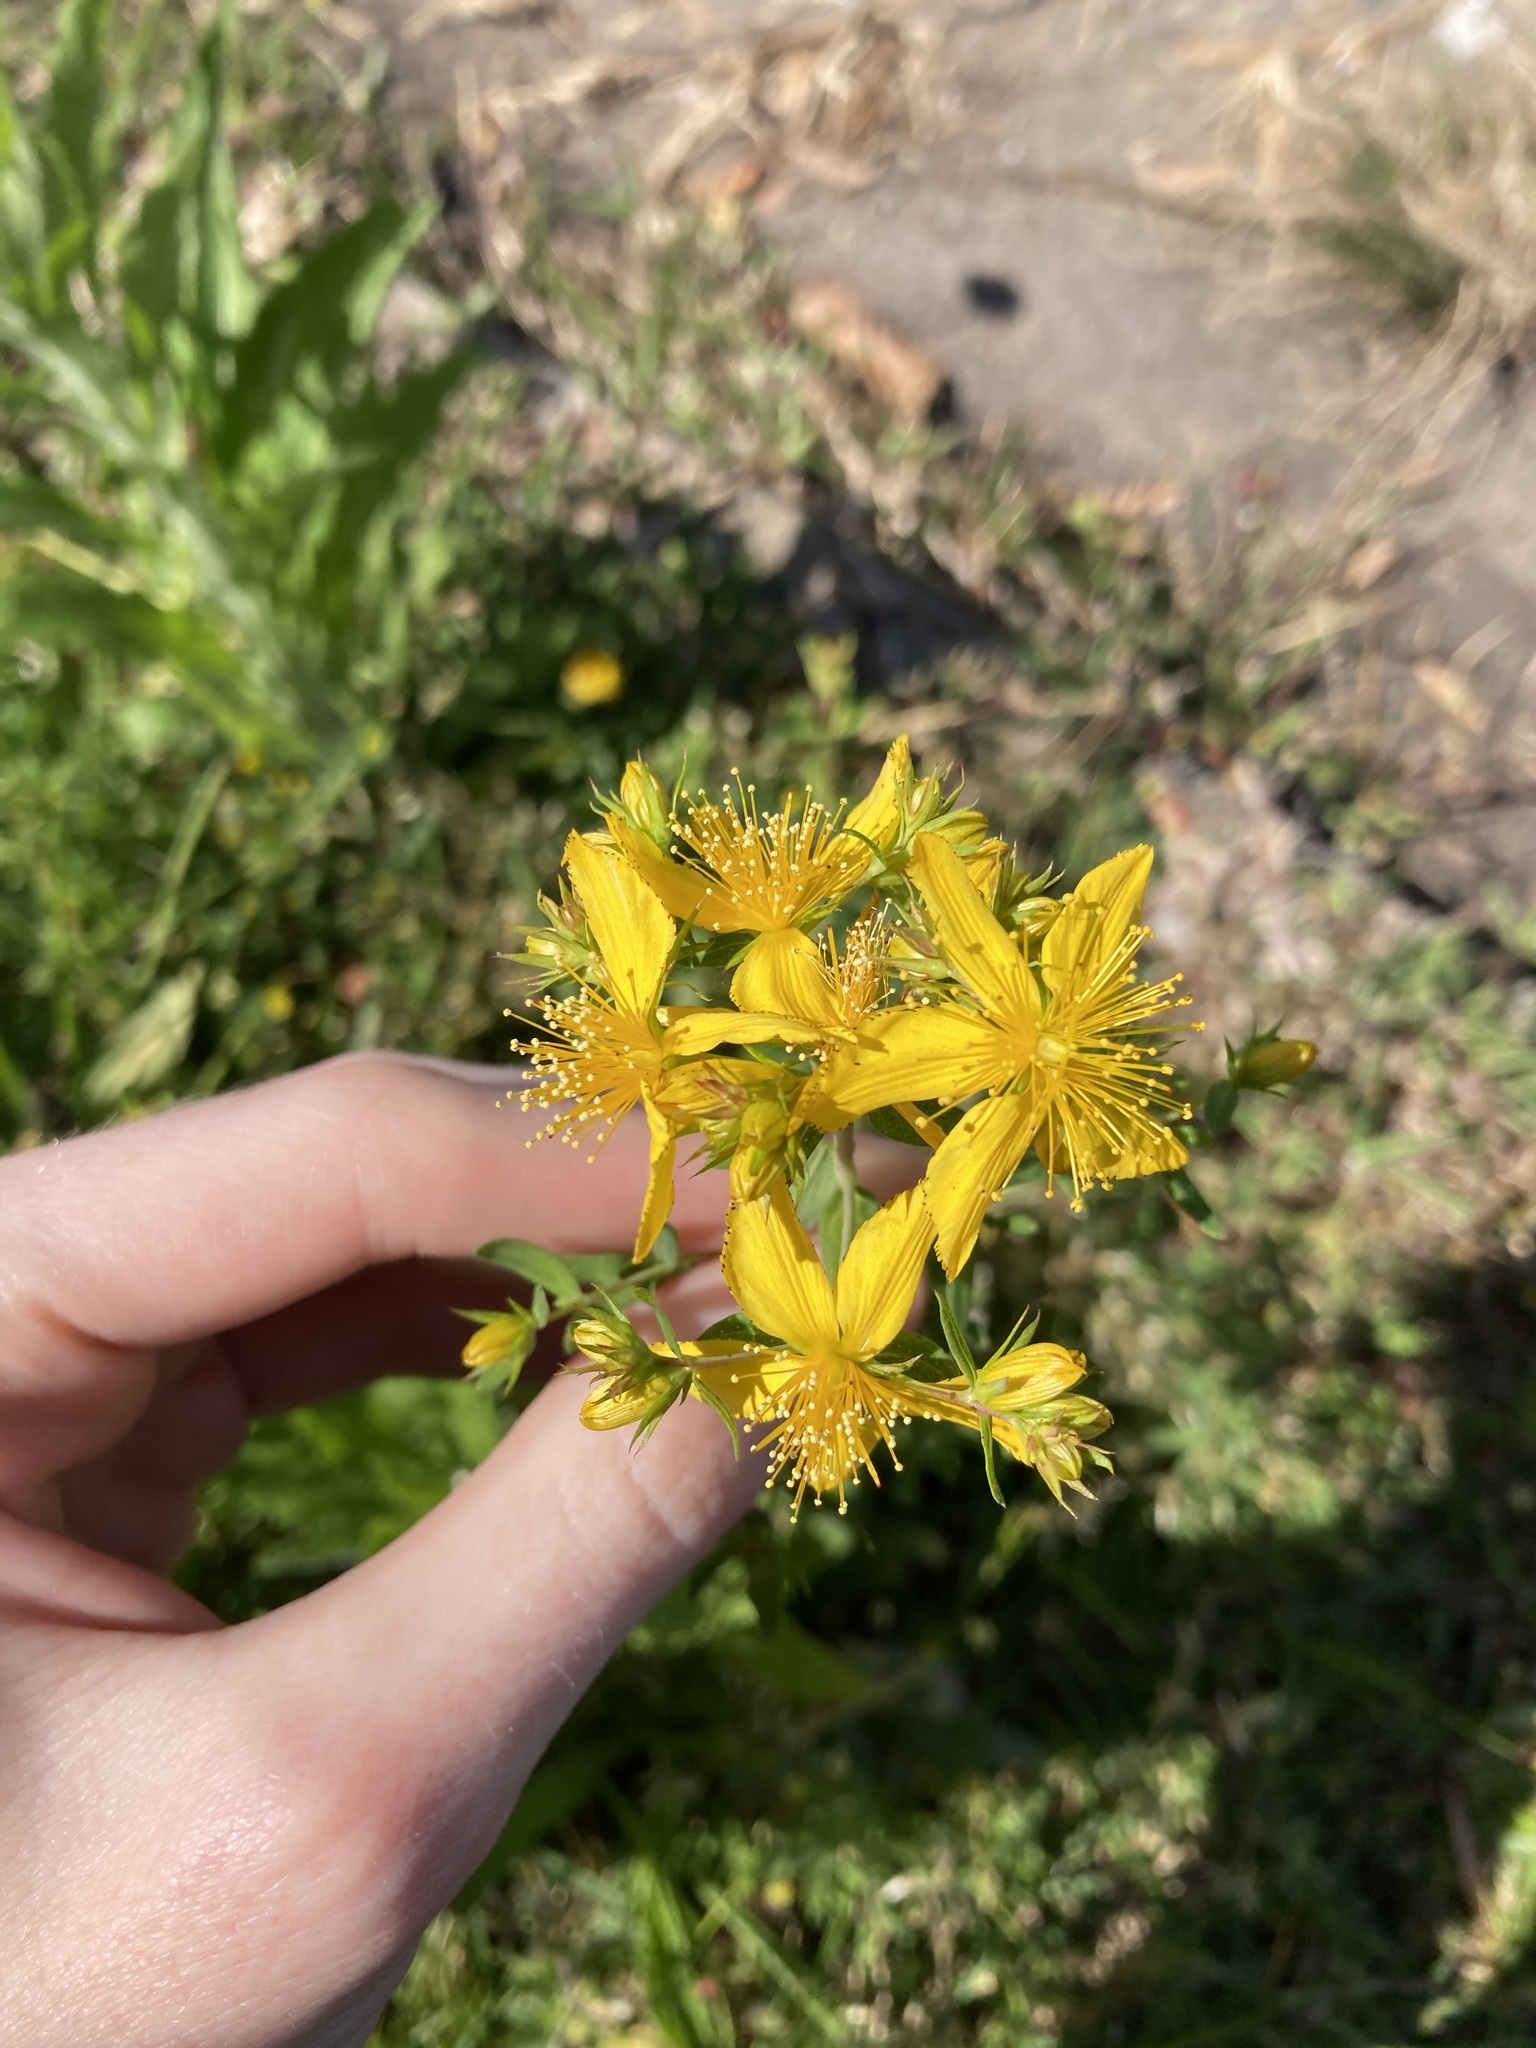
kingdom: Plantae
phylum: Tracheophyta
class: Magnoliopsida
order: Malpighiales
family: Hypericaceae
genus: Hypericum
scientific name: Hypericum perforatum
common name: Common st. johnswort
